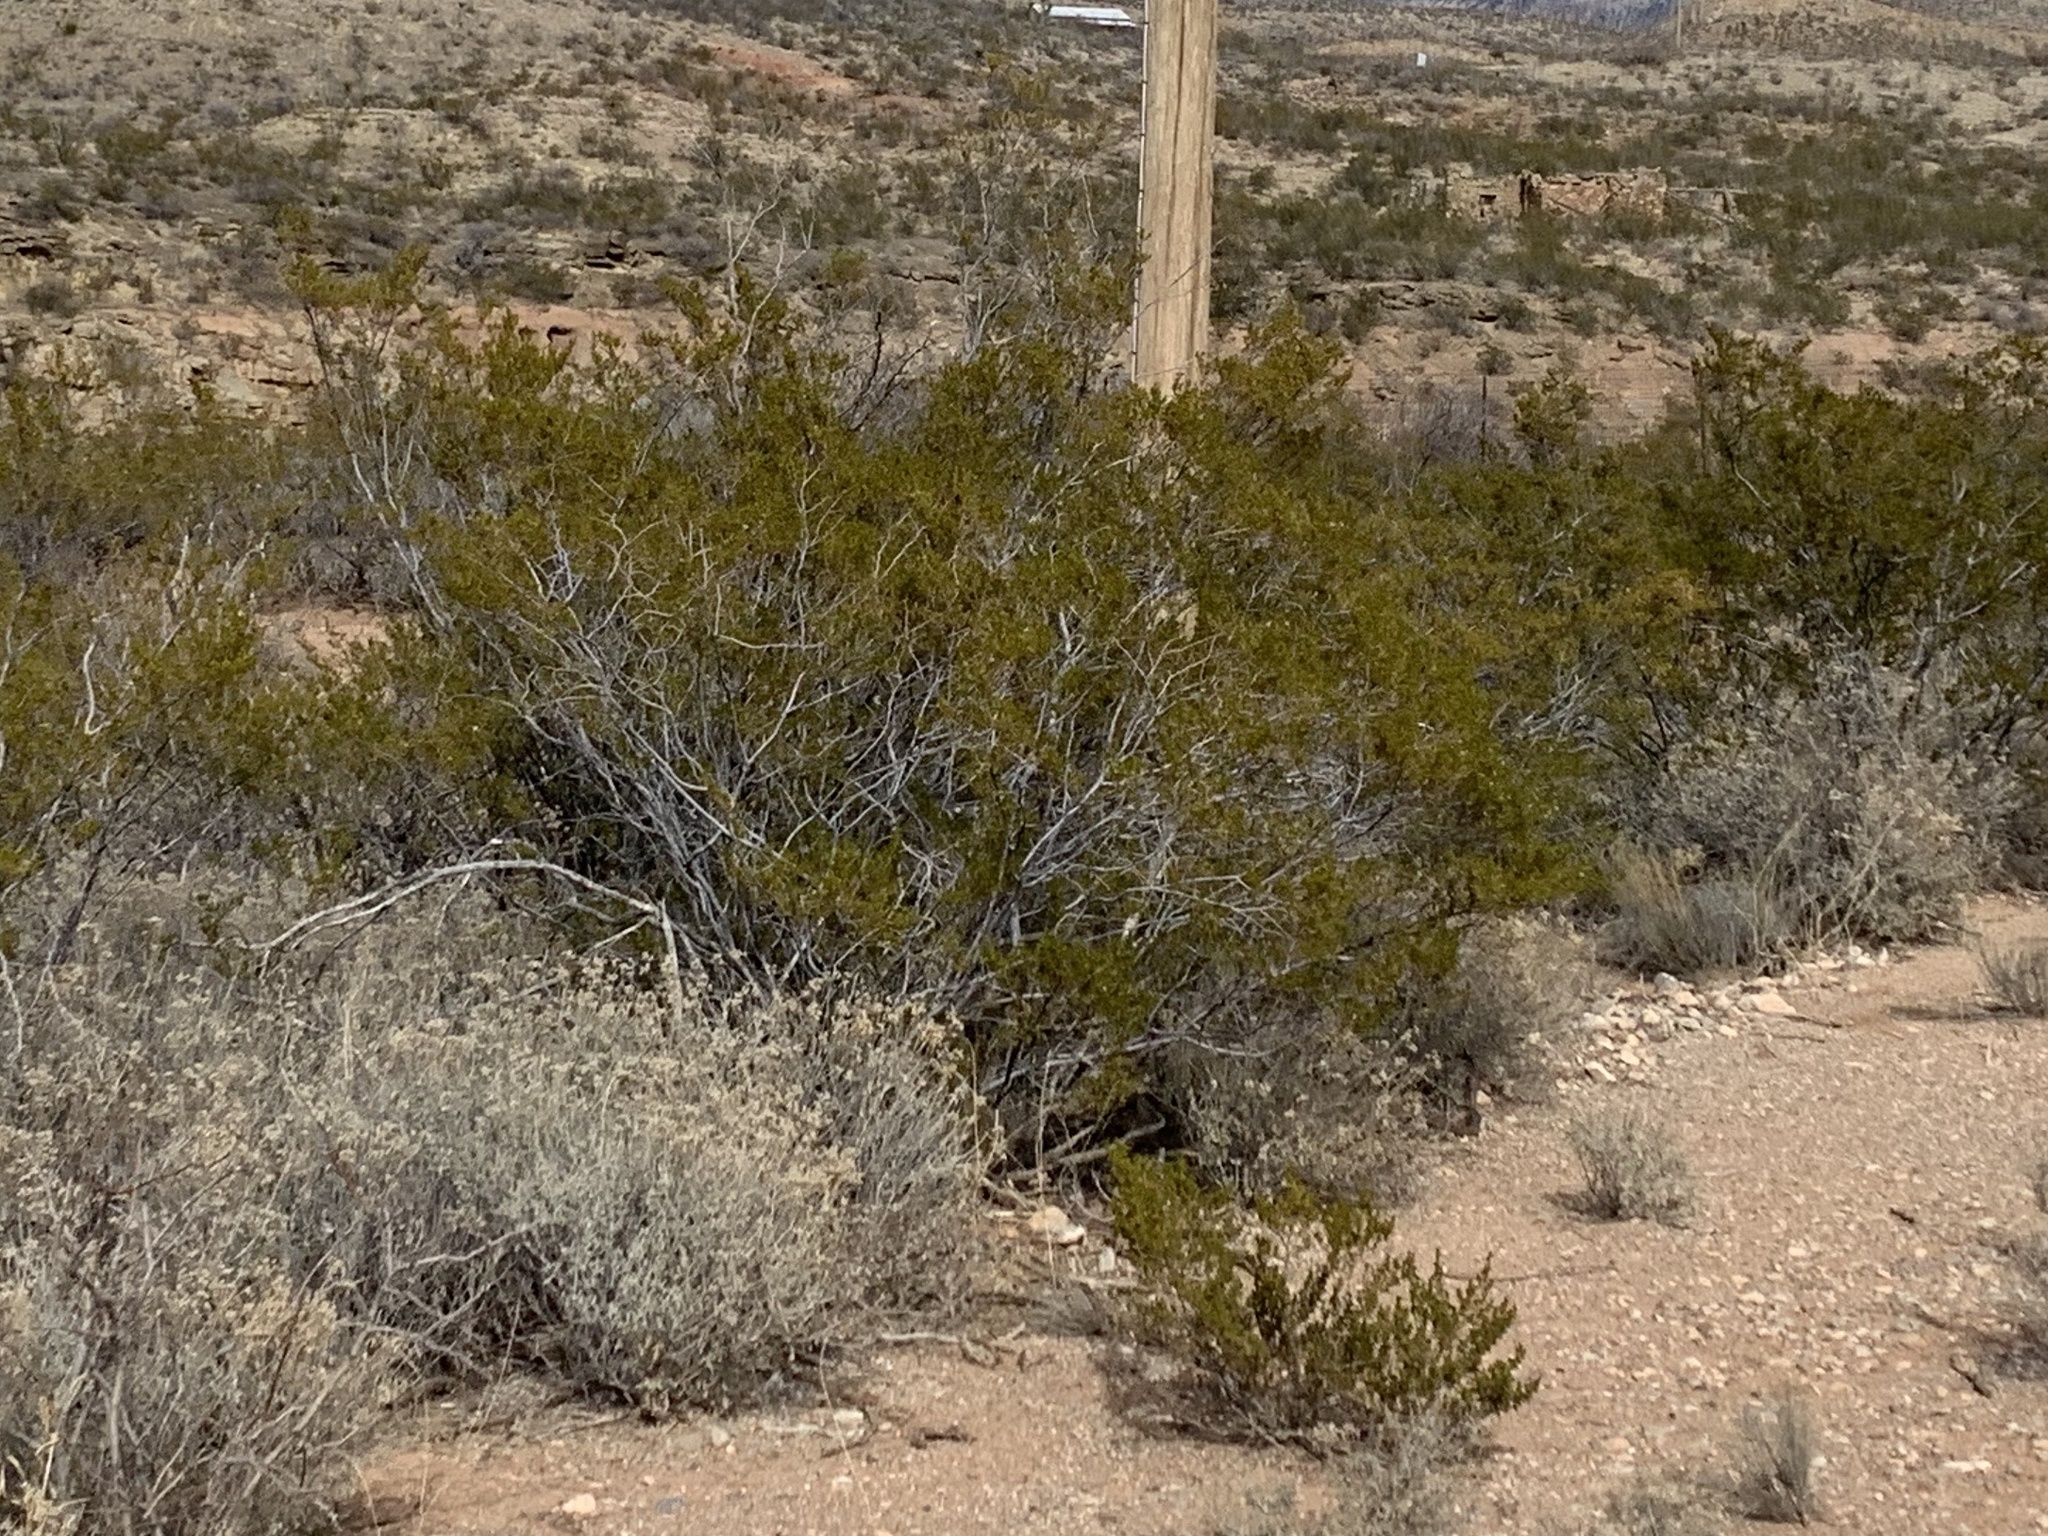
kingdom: Plantae
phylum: Tracheophyta
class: Magnoliopsida
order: Zygophyllales
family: Zygophyllaceae
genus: Larrea
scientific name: Larrea tridentata
